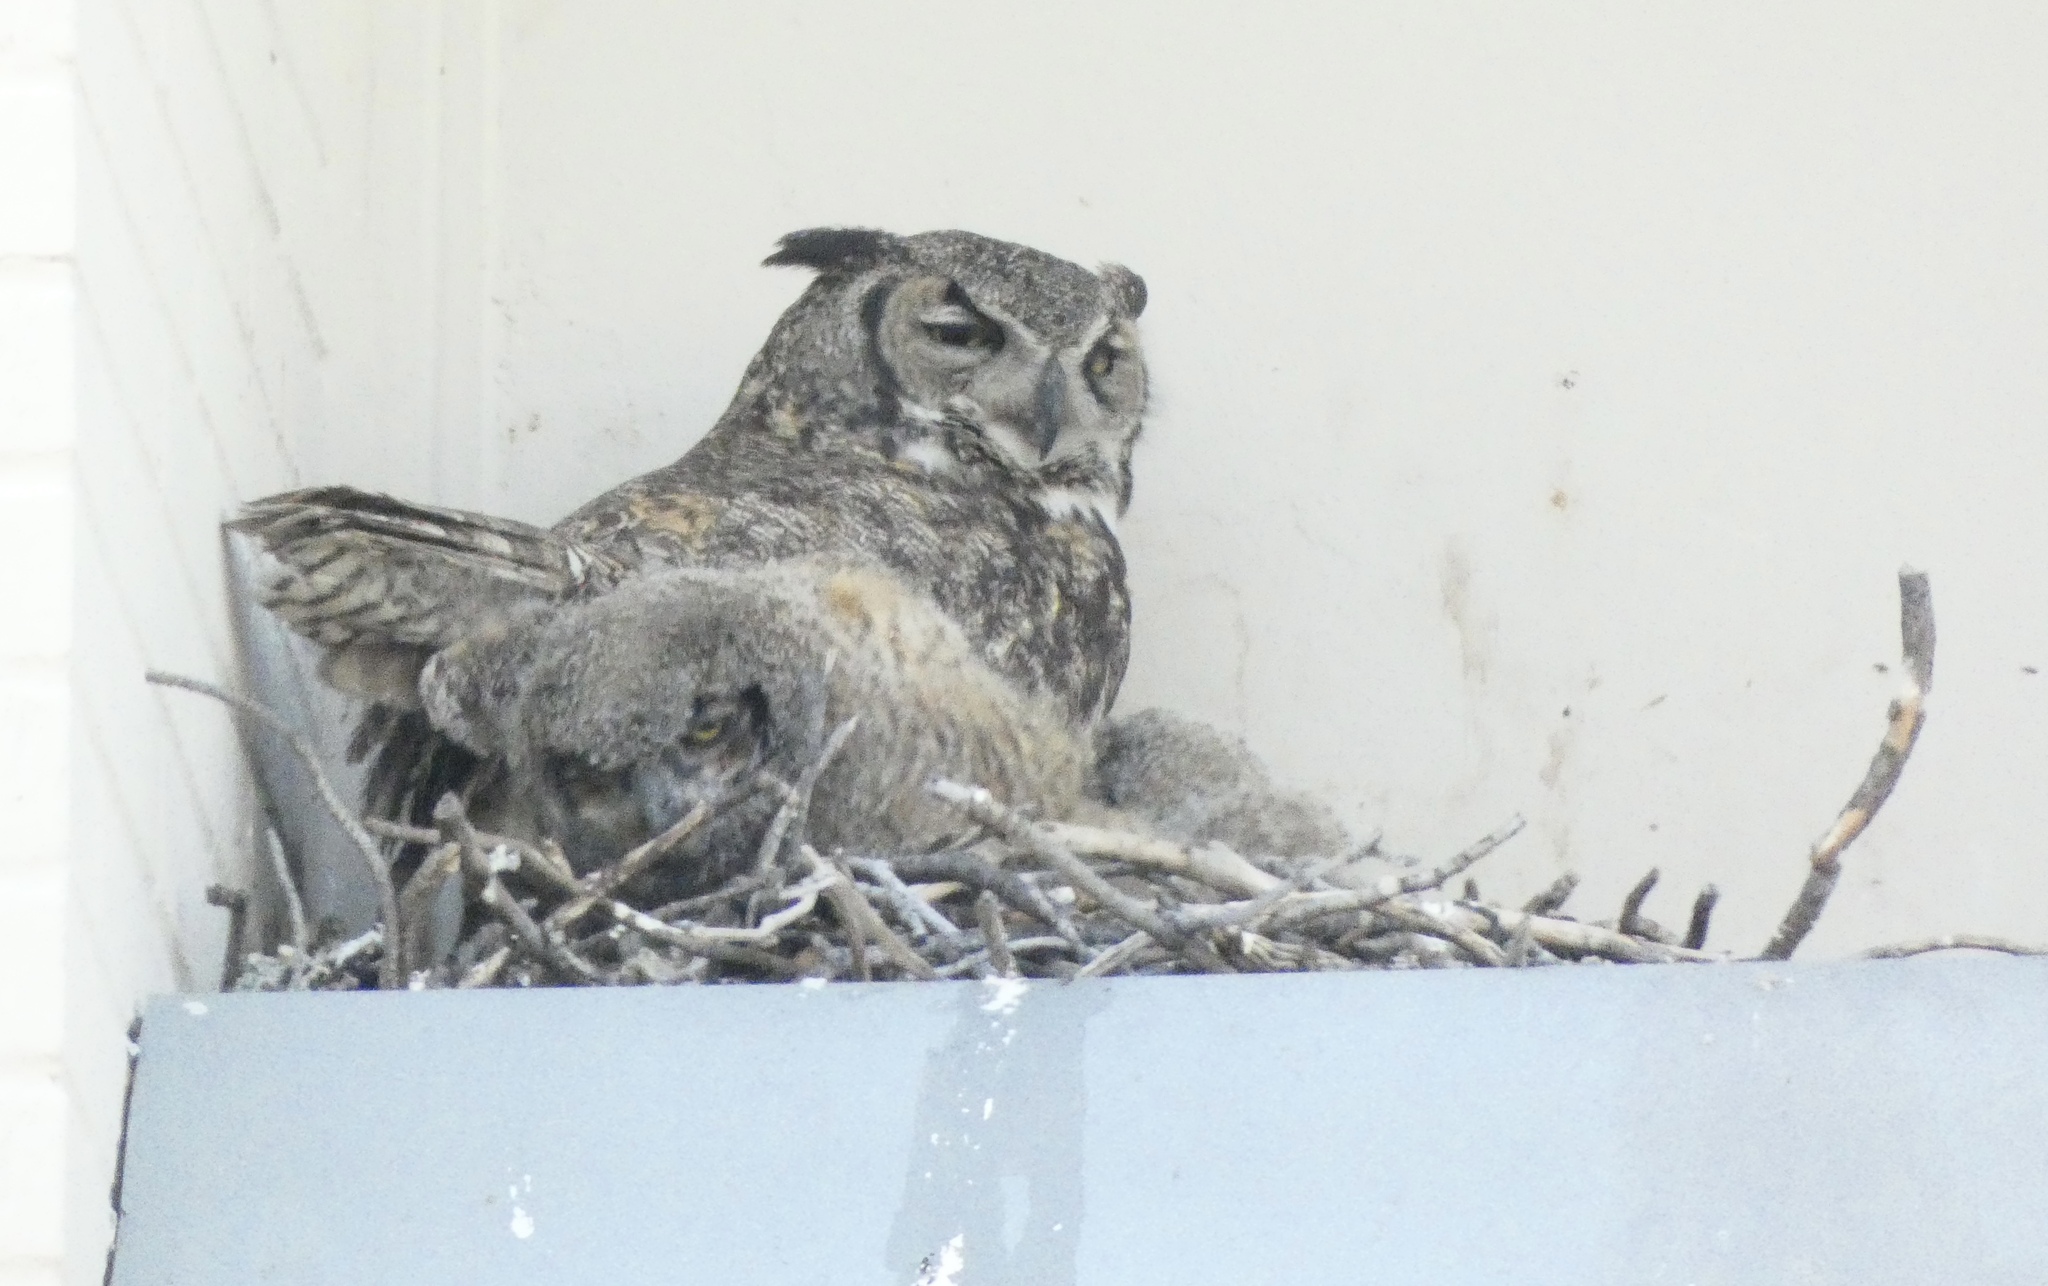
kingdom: Animalia
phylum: Chordata
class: Aves
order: Strigiformes
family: Strigidae
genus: Bubo
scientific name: Bubo virginianus
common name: Great horned owl
